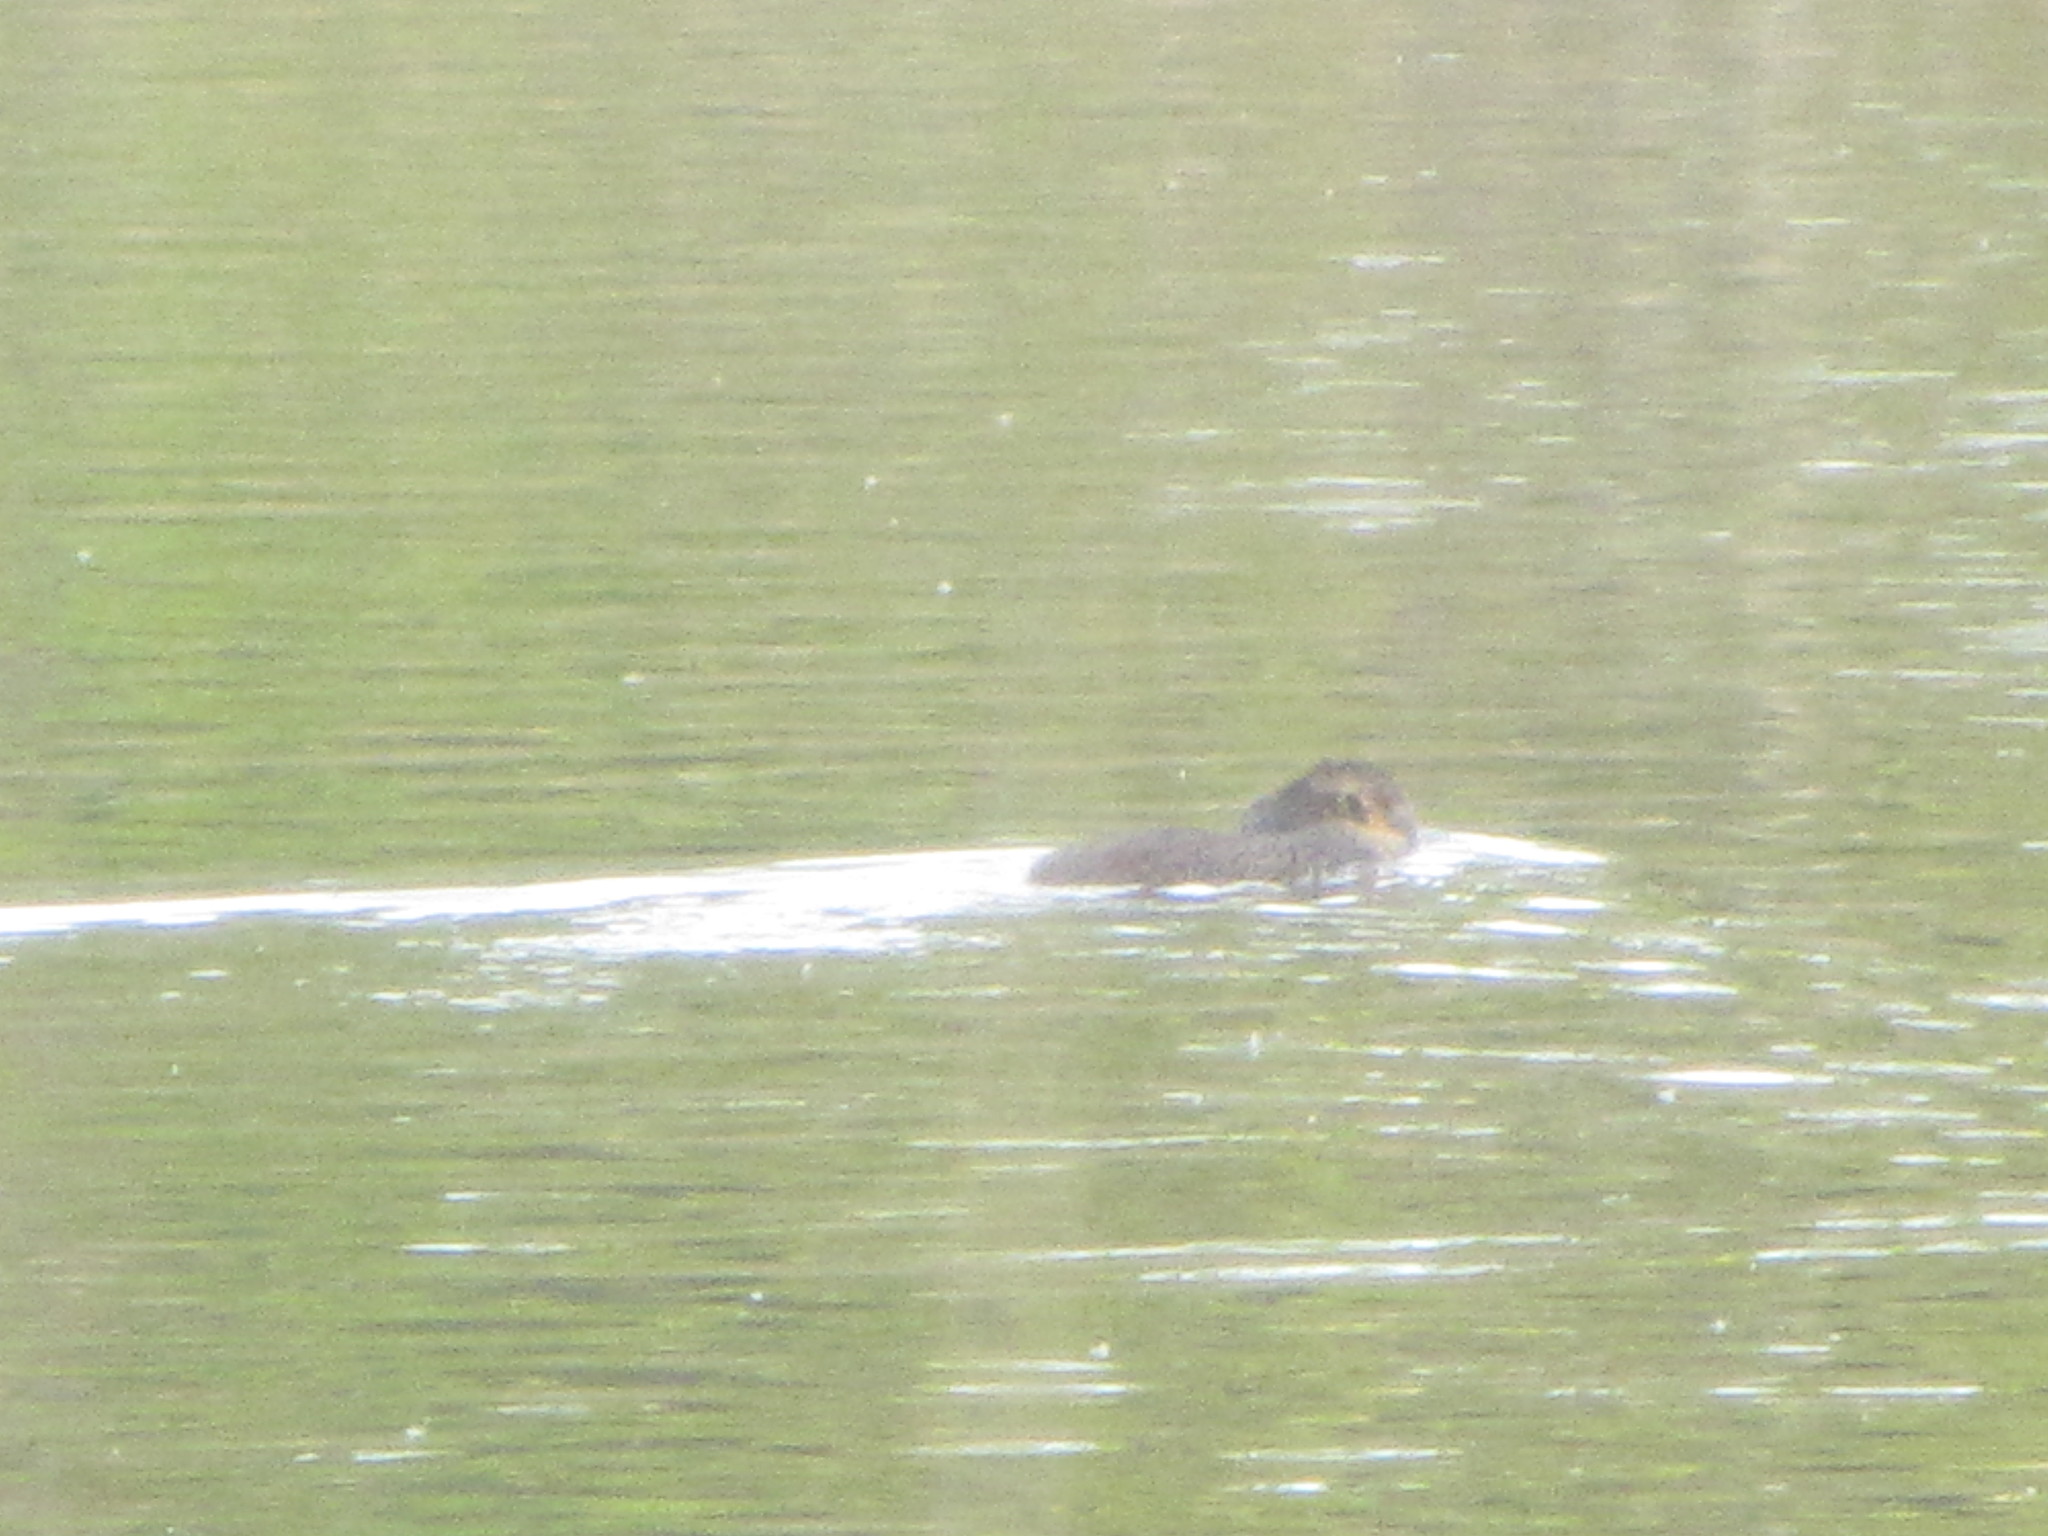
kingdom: Animalia
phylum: Chordata
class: Mammalia
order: Rodentia
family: Myocastoridae
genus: Myocastor
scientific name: Myocastor coypus
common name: Coypu
